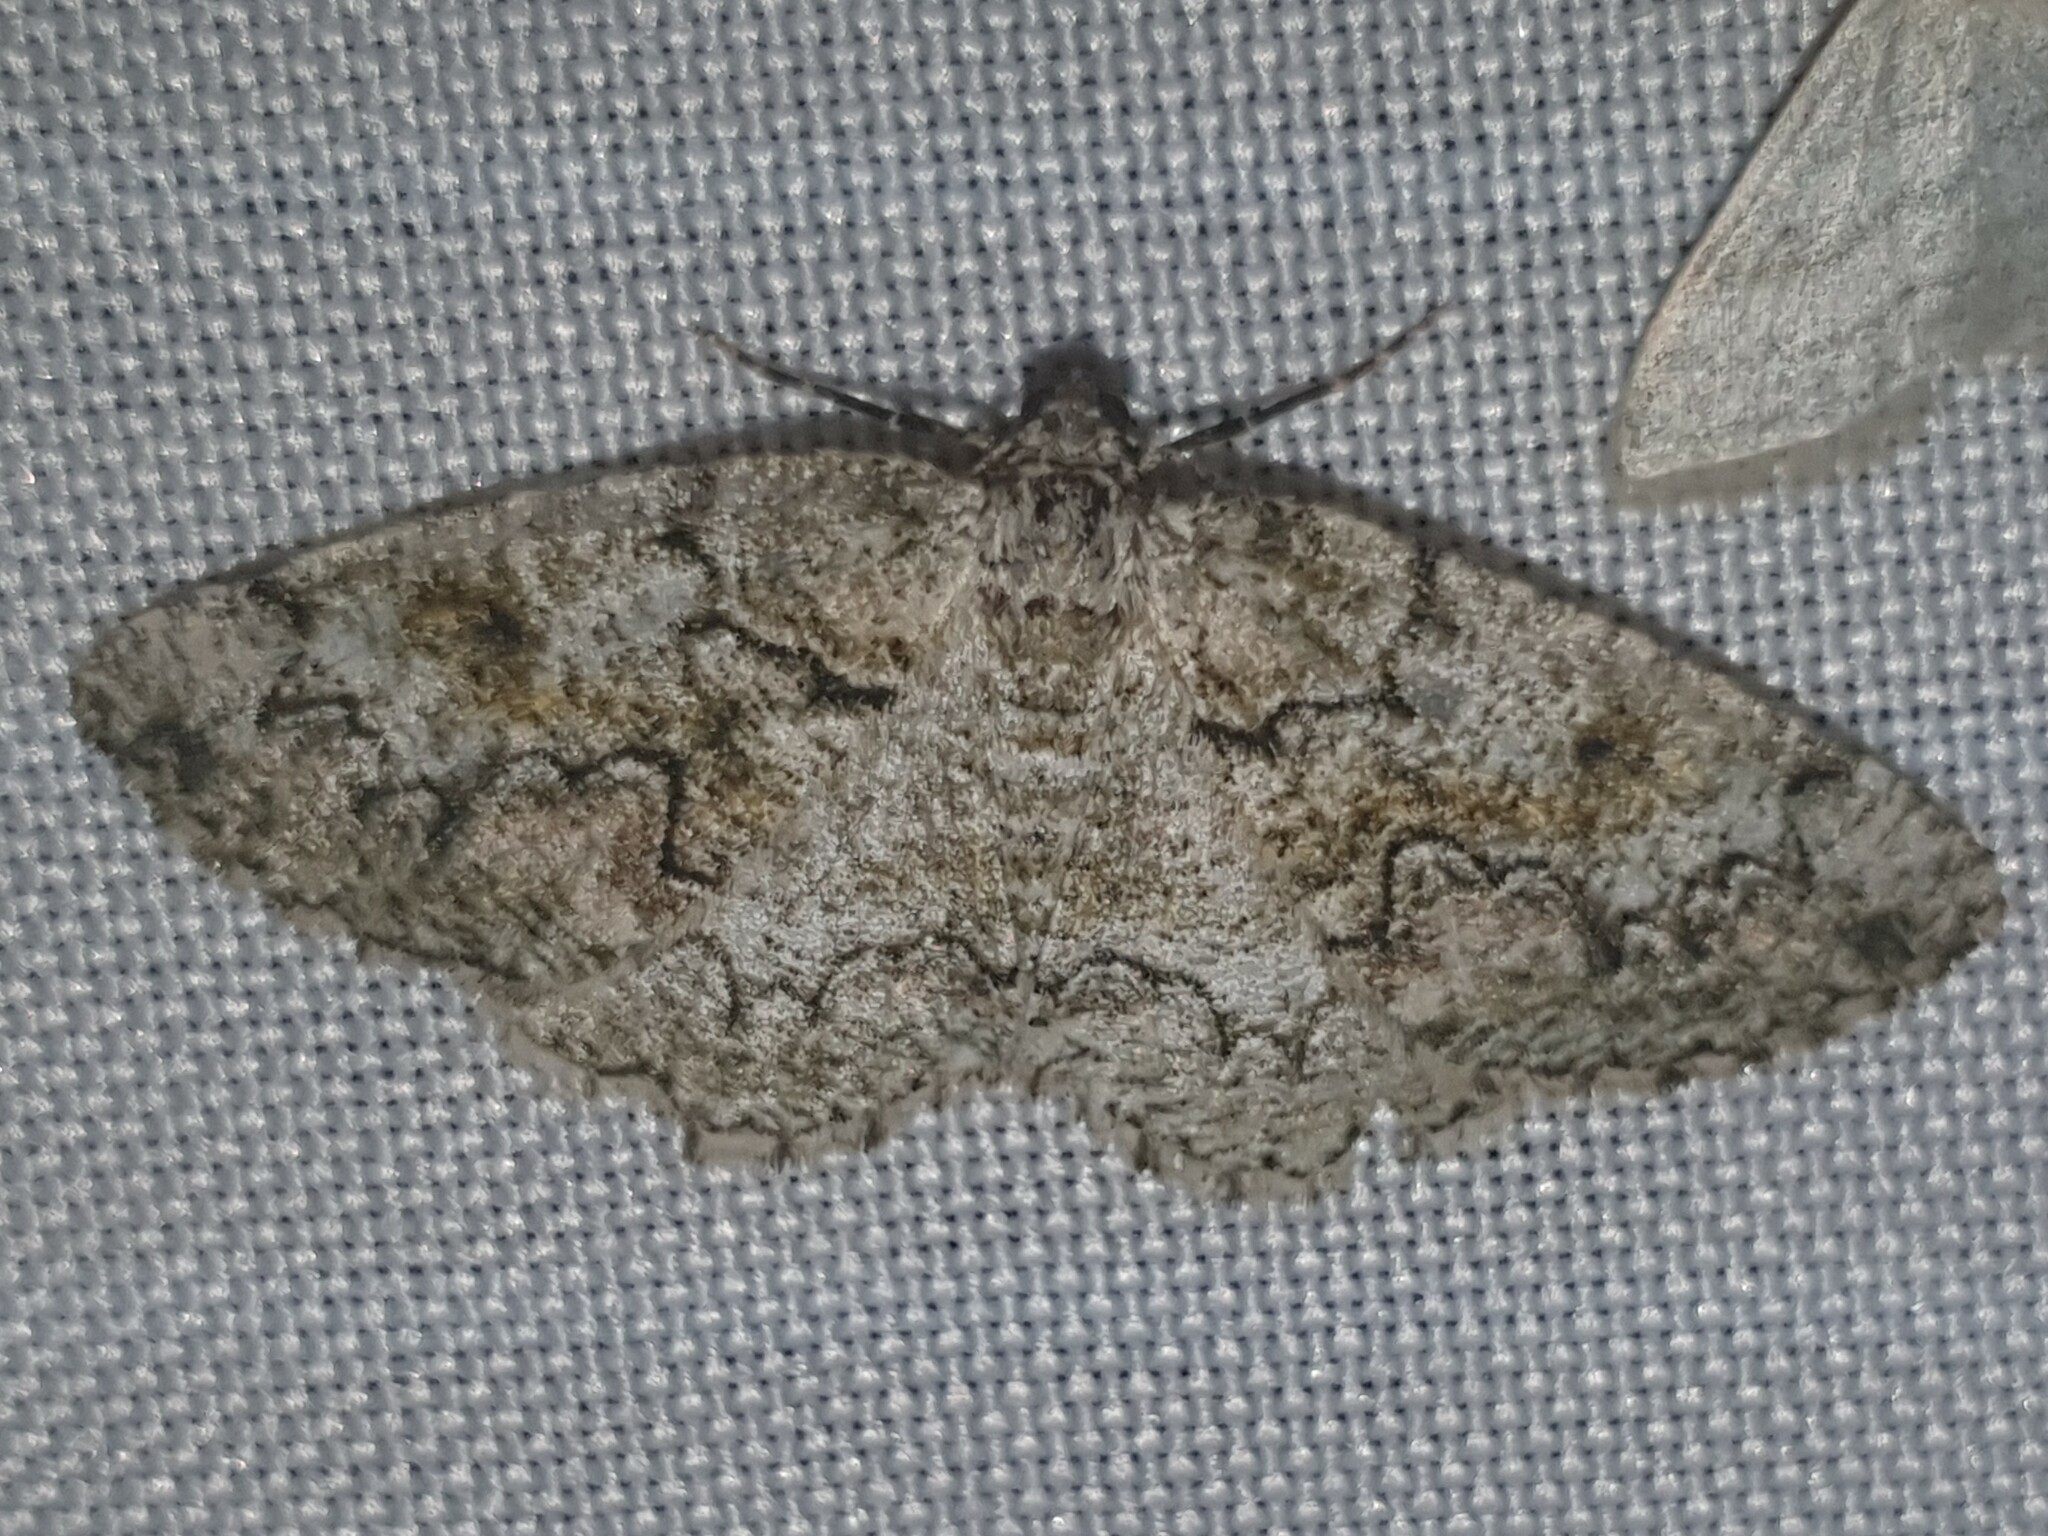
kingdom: Animalia
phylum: Arthropoda
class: Insecta
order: Lepidoptera
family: Geometridae
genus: Cleorodes
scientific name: Cleorodes lichenaria
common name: Brussels lace
